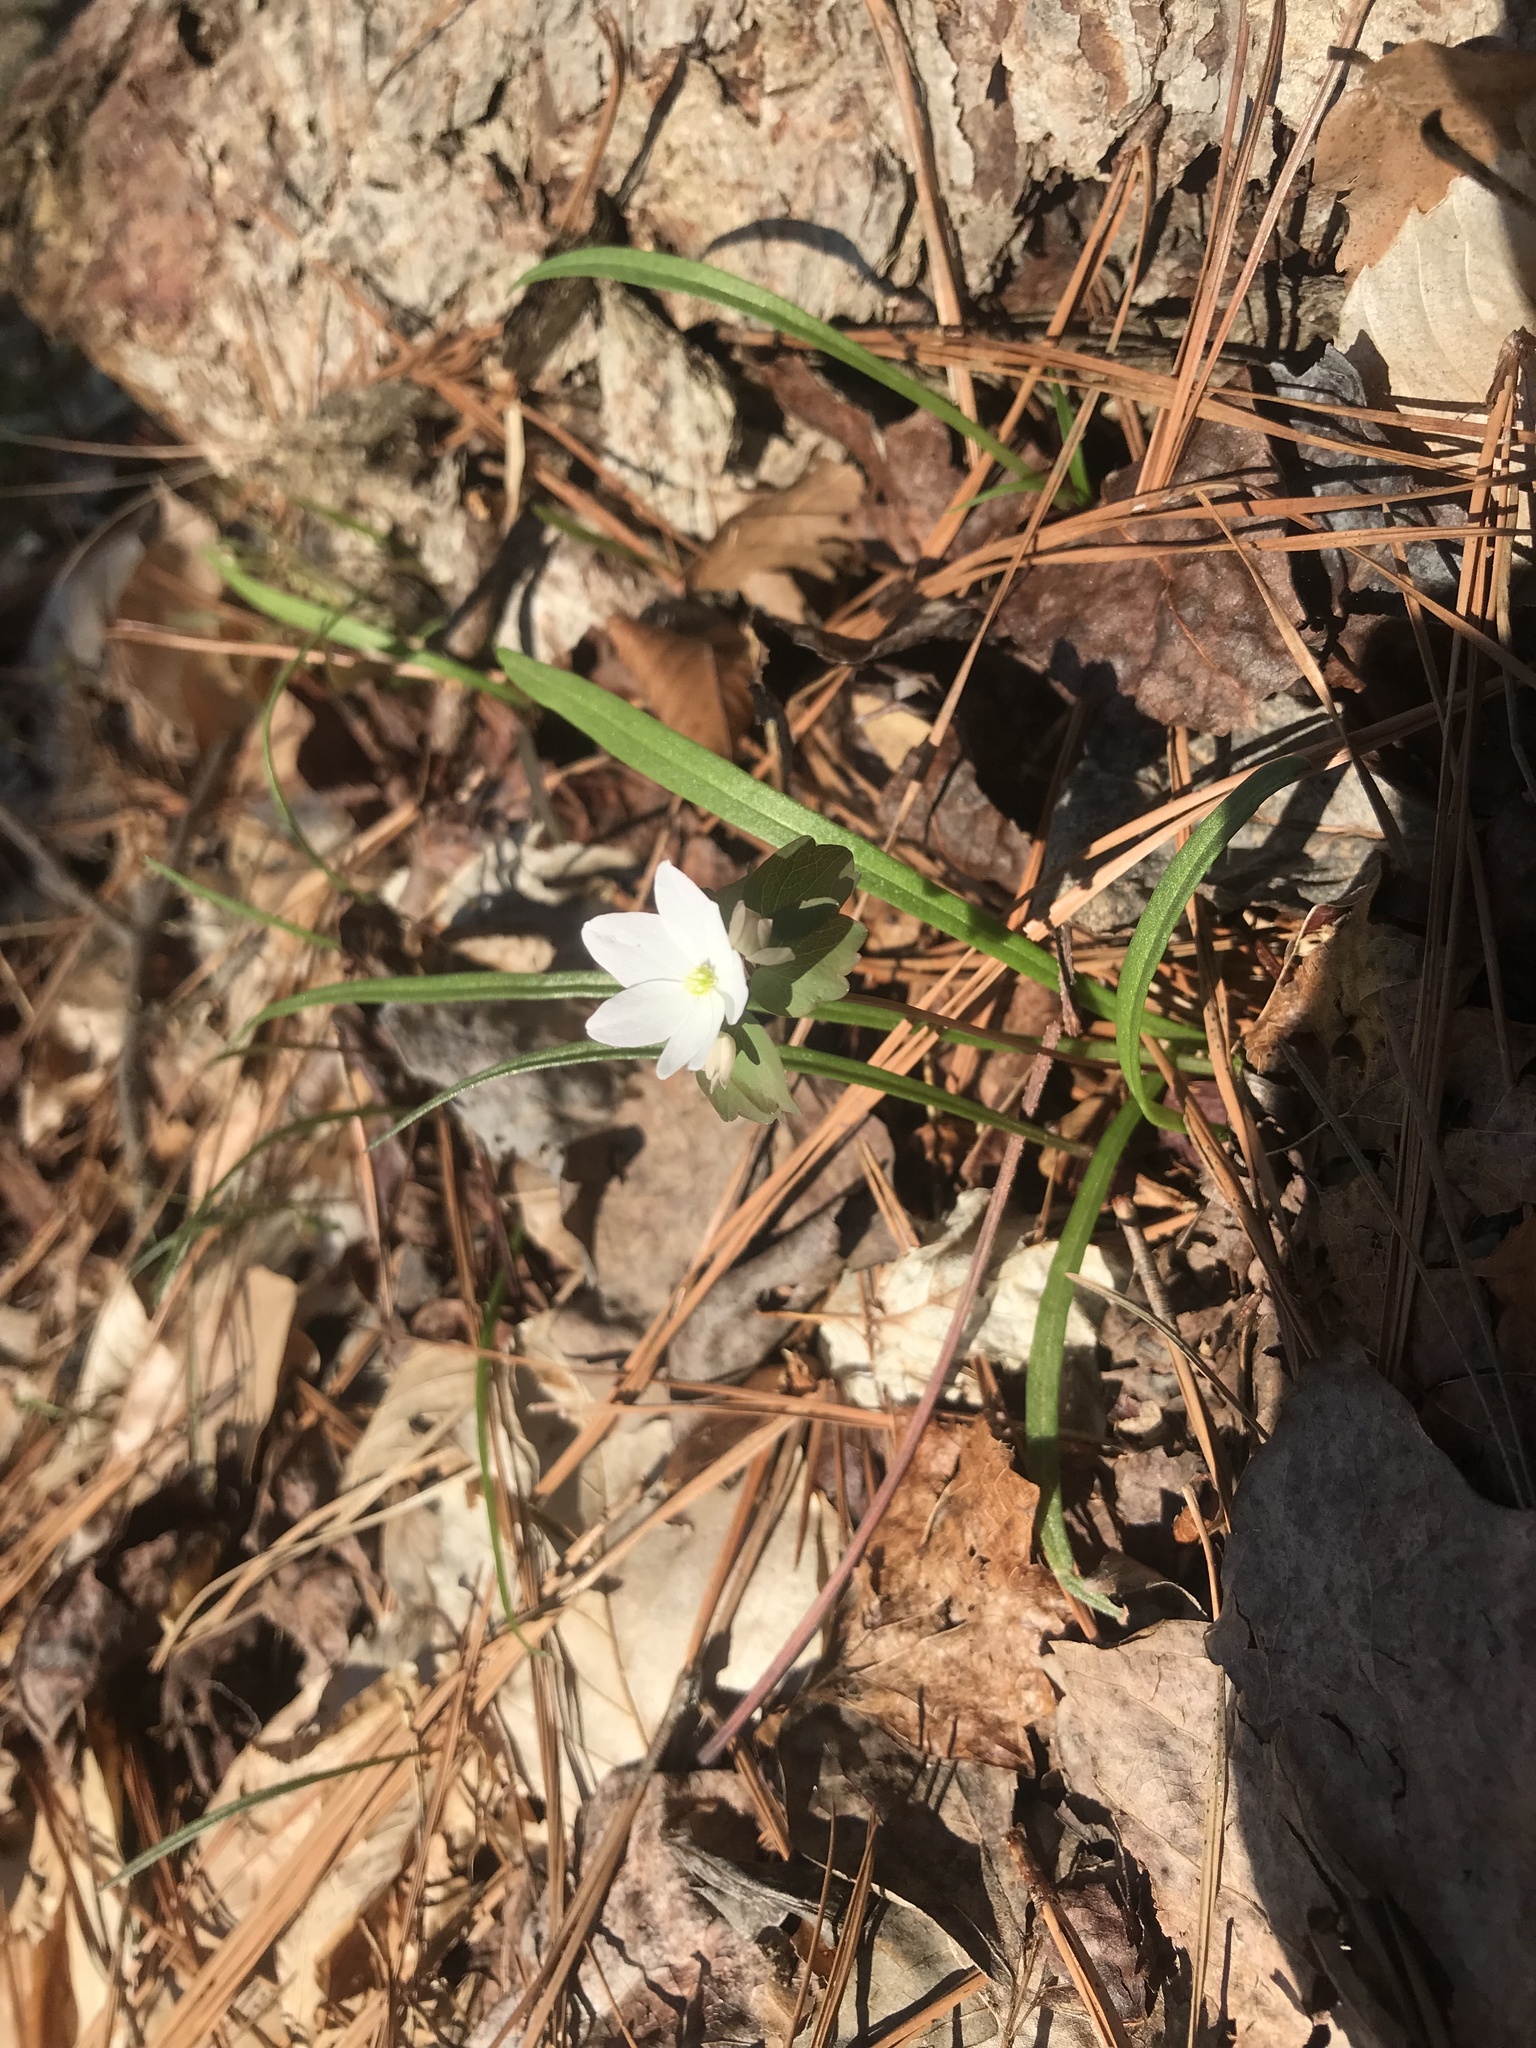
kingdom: Plantae
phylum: Tracheophyta
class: Magnoliopsida
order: Caryophyllales
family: Montiaceae
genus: Claytonia
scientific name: Claytonia virginica
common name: Virginia springbeauty
